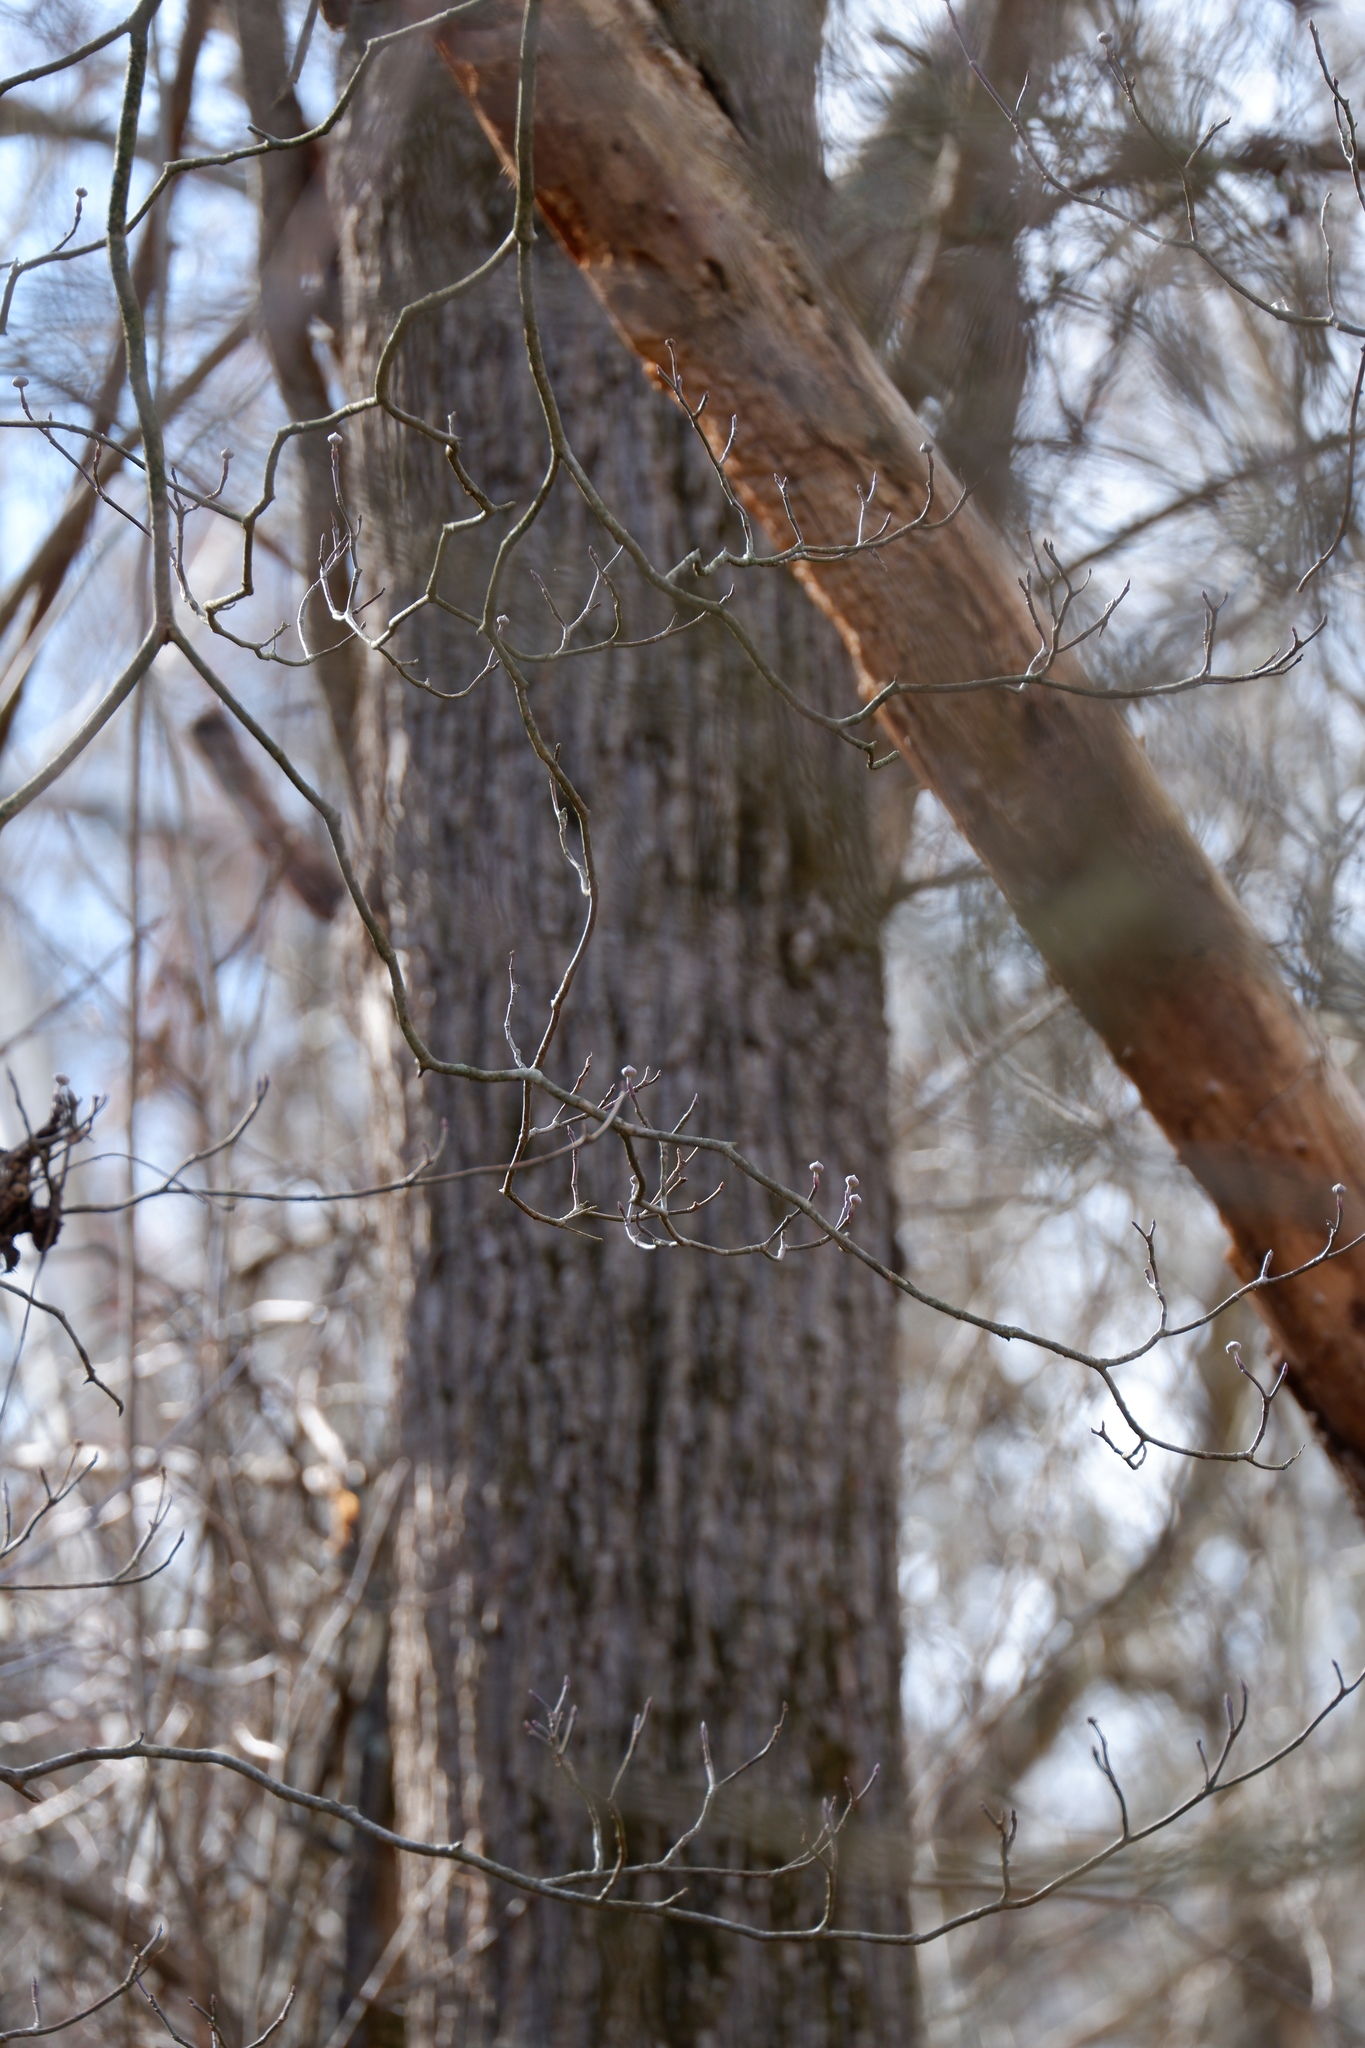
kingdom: Plantae
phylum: Tracheophyta
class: Magnoliopsida
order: Cornales
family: Cornaceae
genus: Cornus
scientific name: Cornus florida
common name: Flowering dogwood
